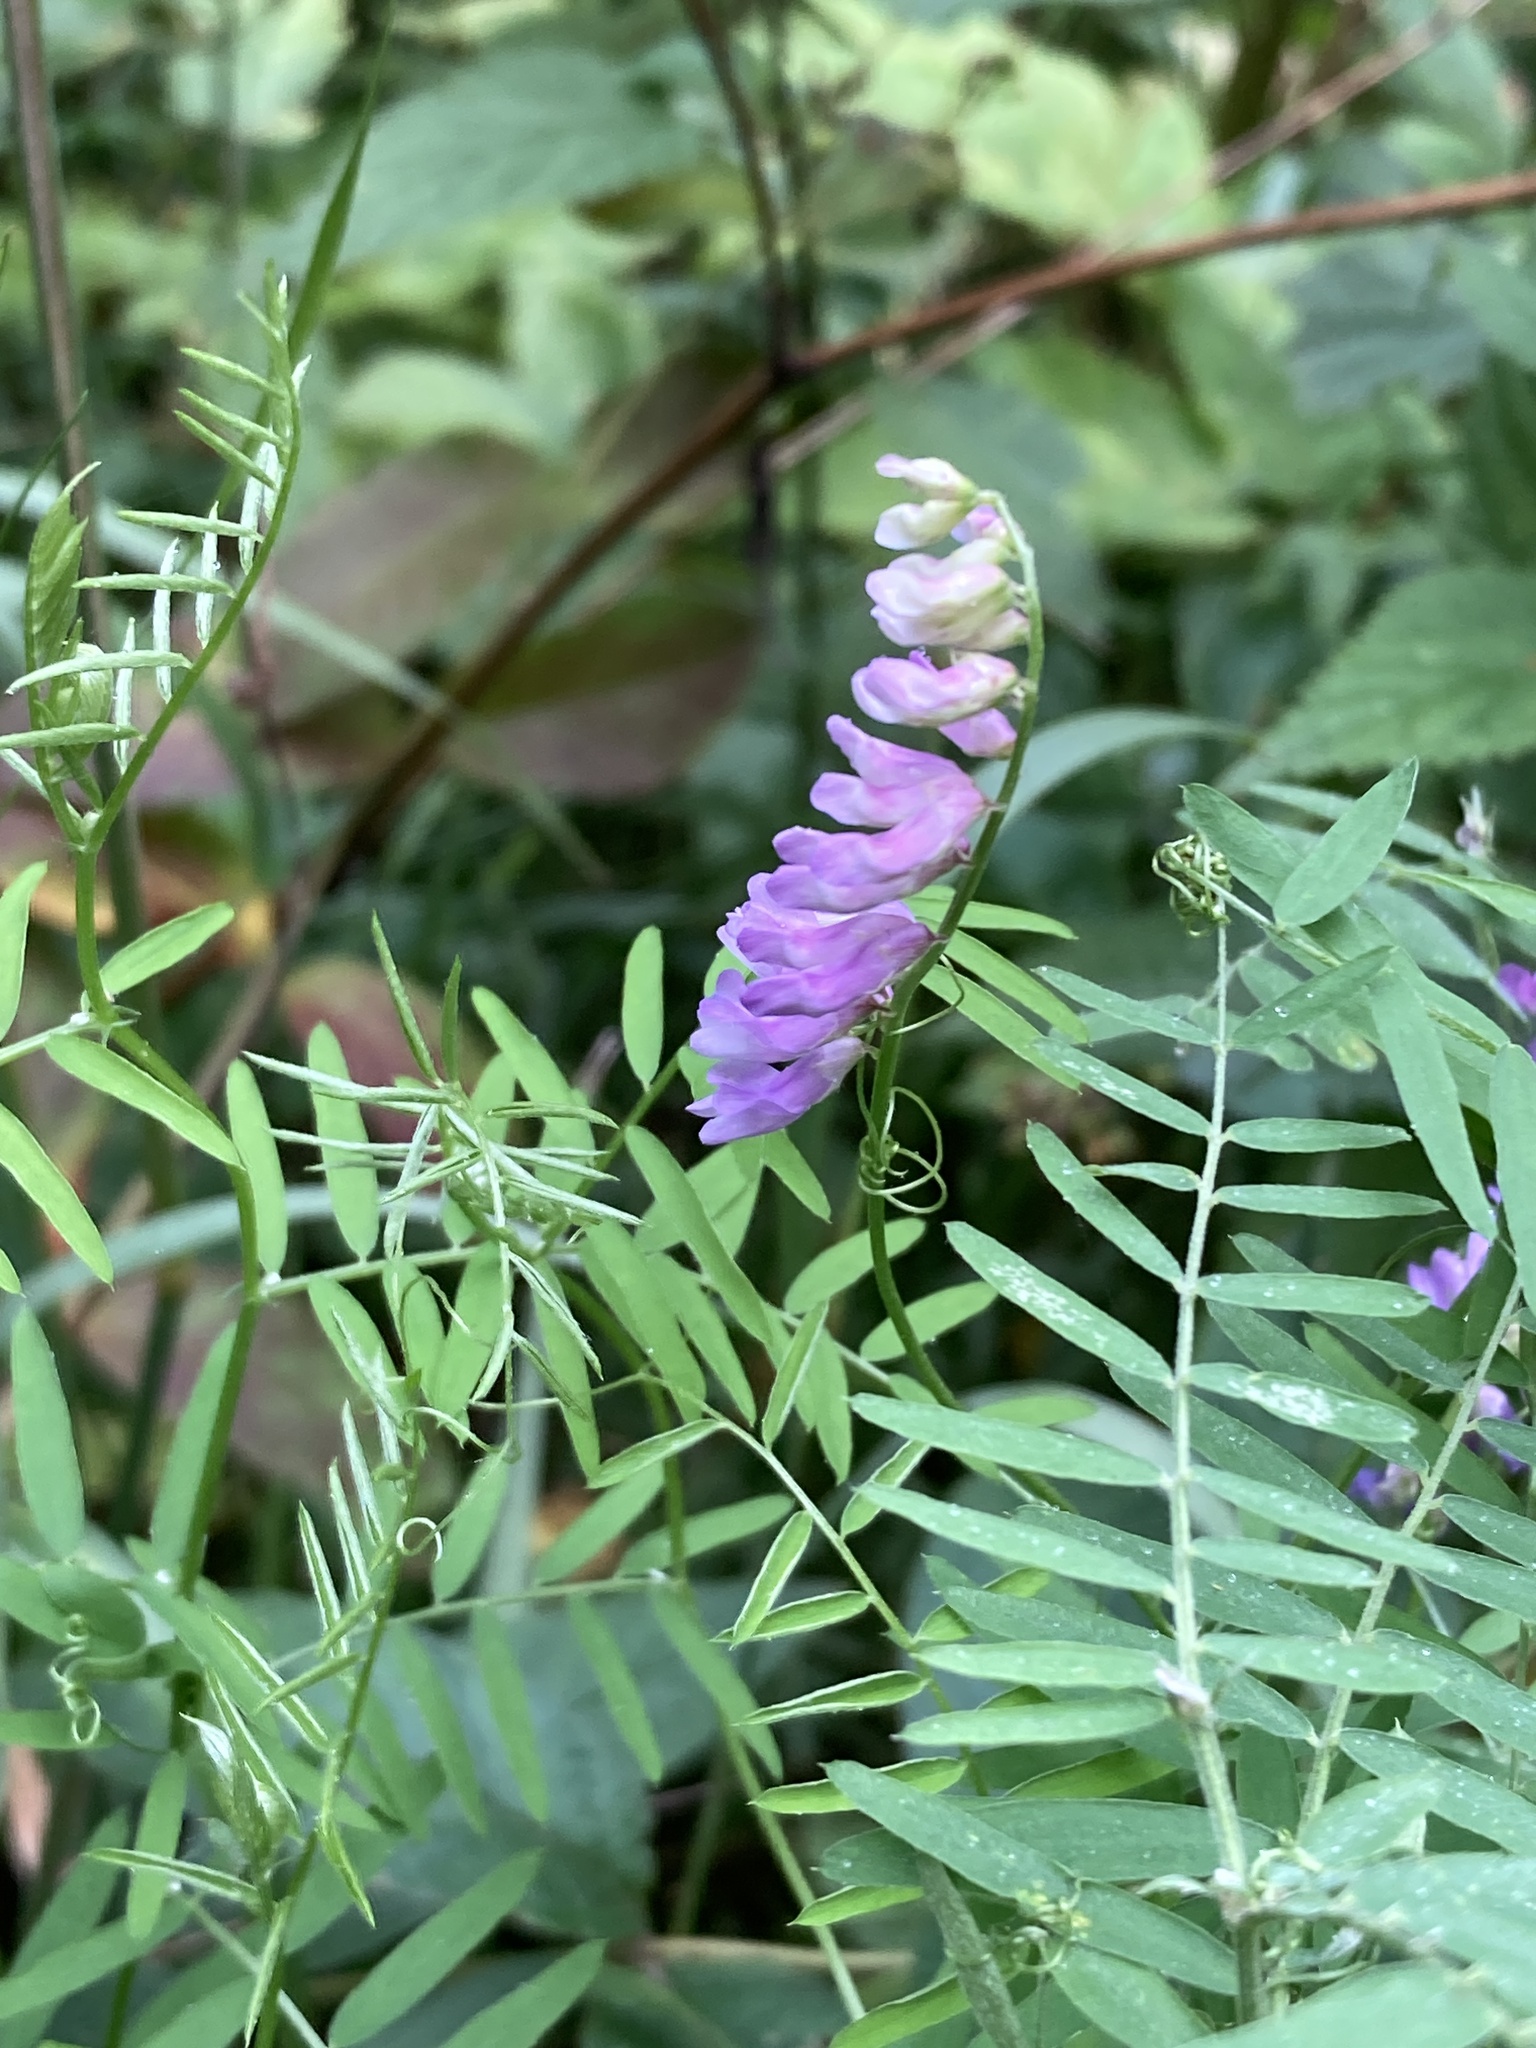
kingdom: Plantae
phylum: Tracheophyta
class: Magnoliopsida
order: Fabales
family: Fabaceae
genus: Vicia
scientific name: Vicia cracca
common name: Bird vetch
